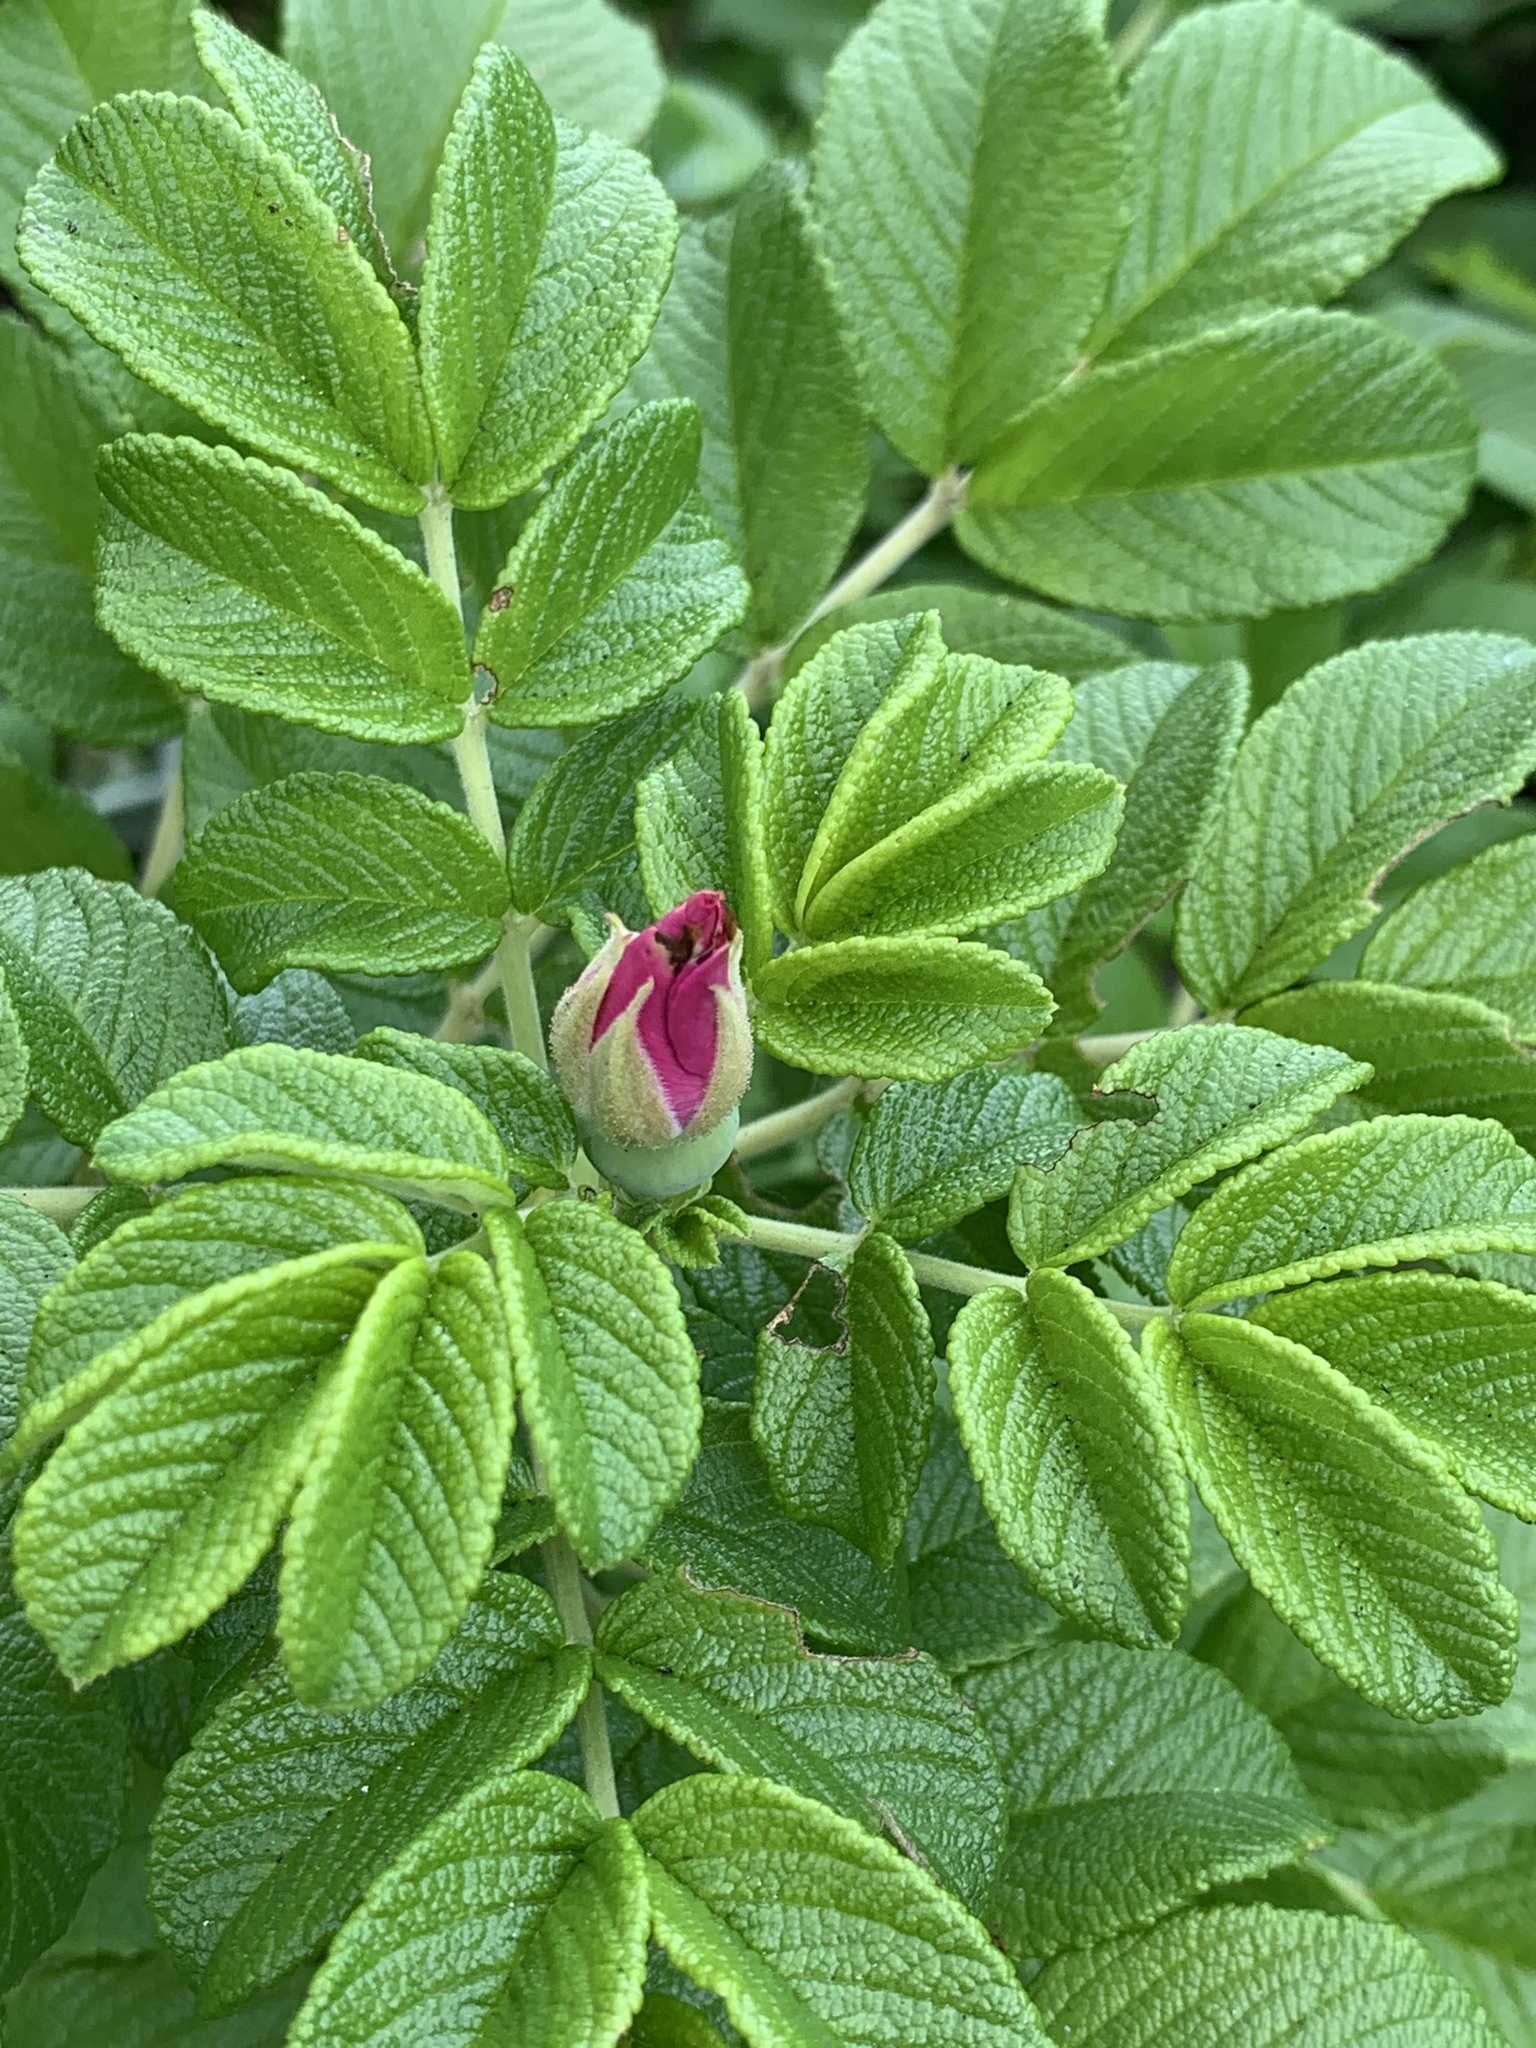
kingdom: Plantae
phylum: Tracheophyta
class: Magnoliopsida
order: Rosales
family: Rosaceae
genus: Rosa
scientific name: Rosa rugosa
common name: Japanese rose
